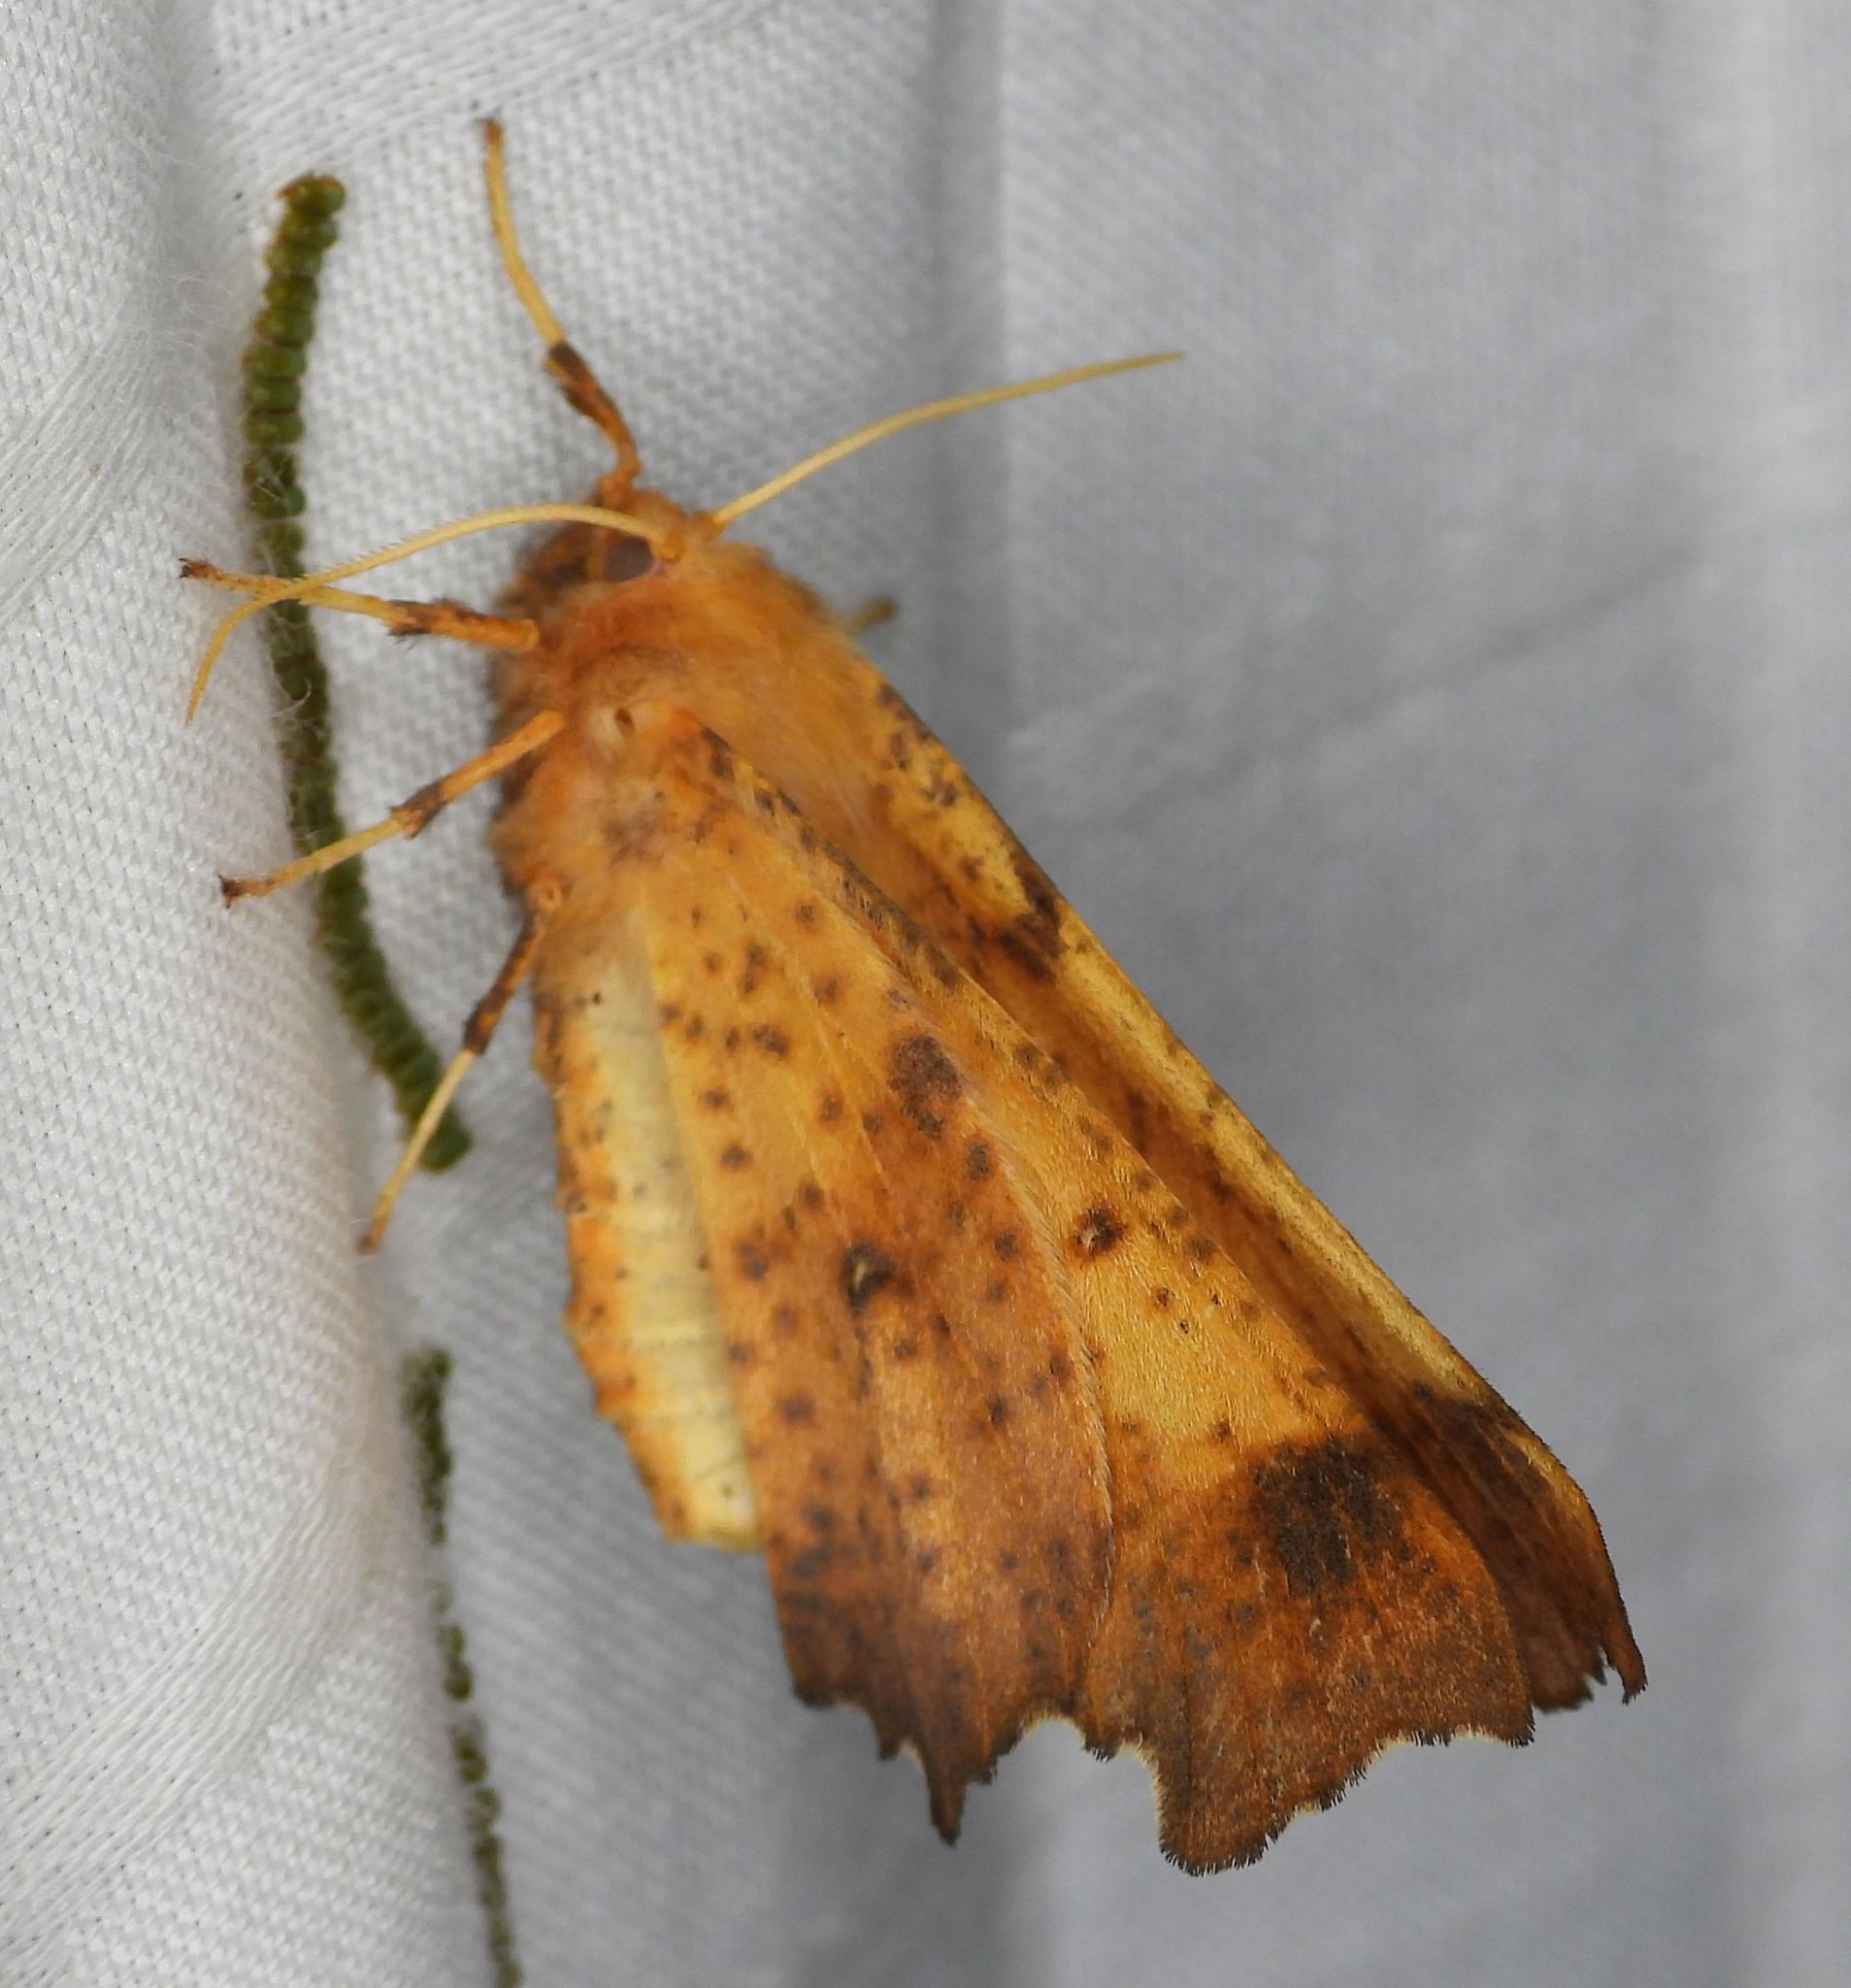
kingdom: Animalia
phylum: Arthropoda
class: Insecta
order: Lepidoptera
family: Geometridae
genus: Ennomos
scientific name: Ennomos magnaria
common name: Maple spanworm
